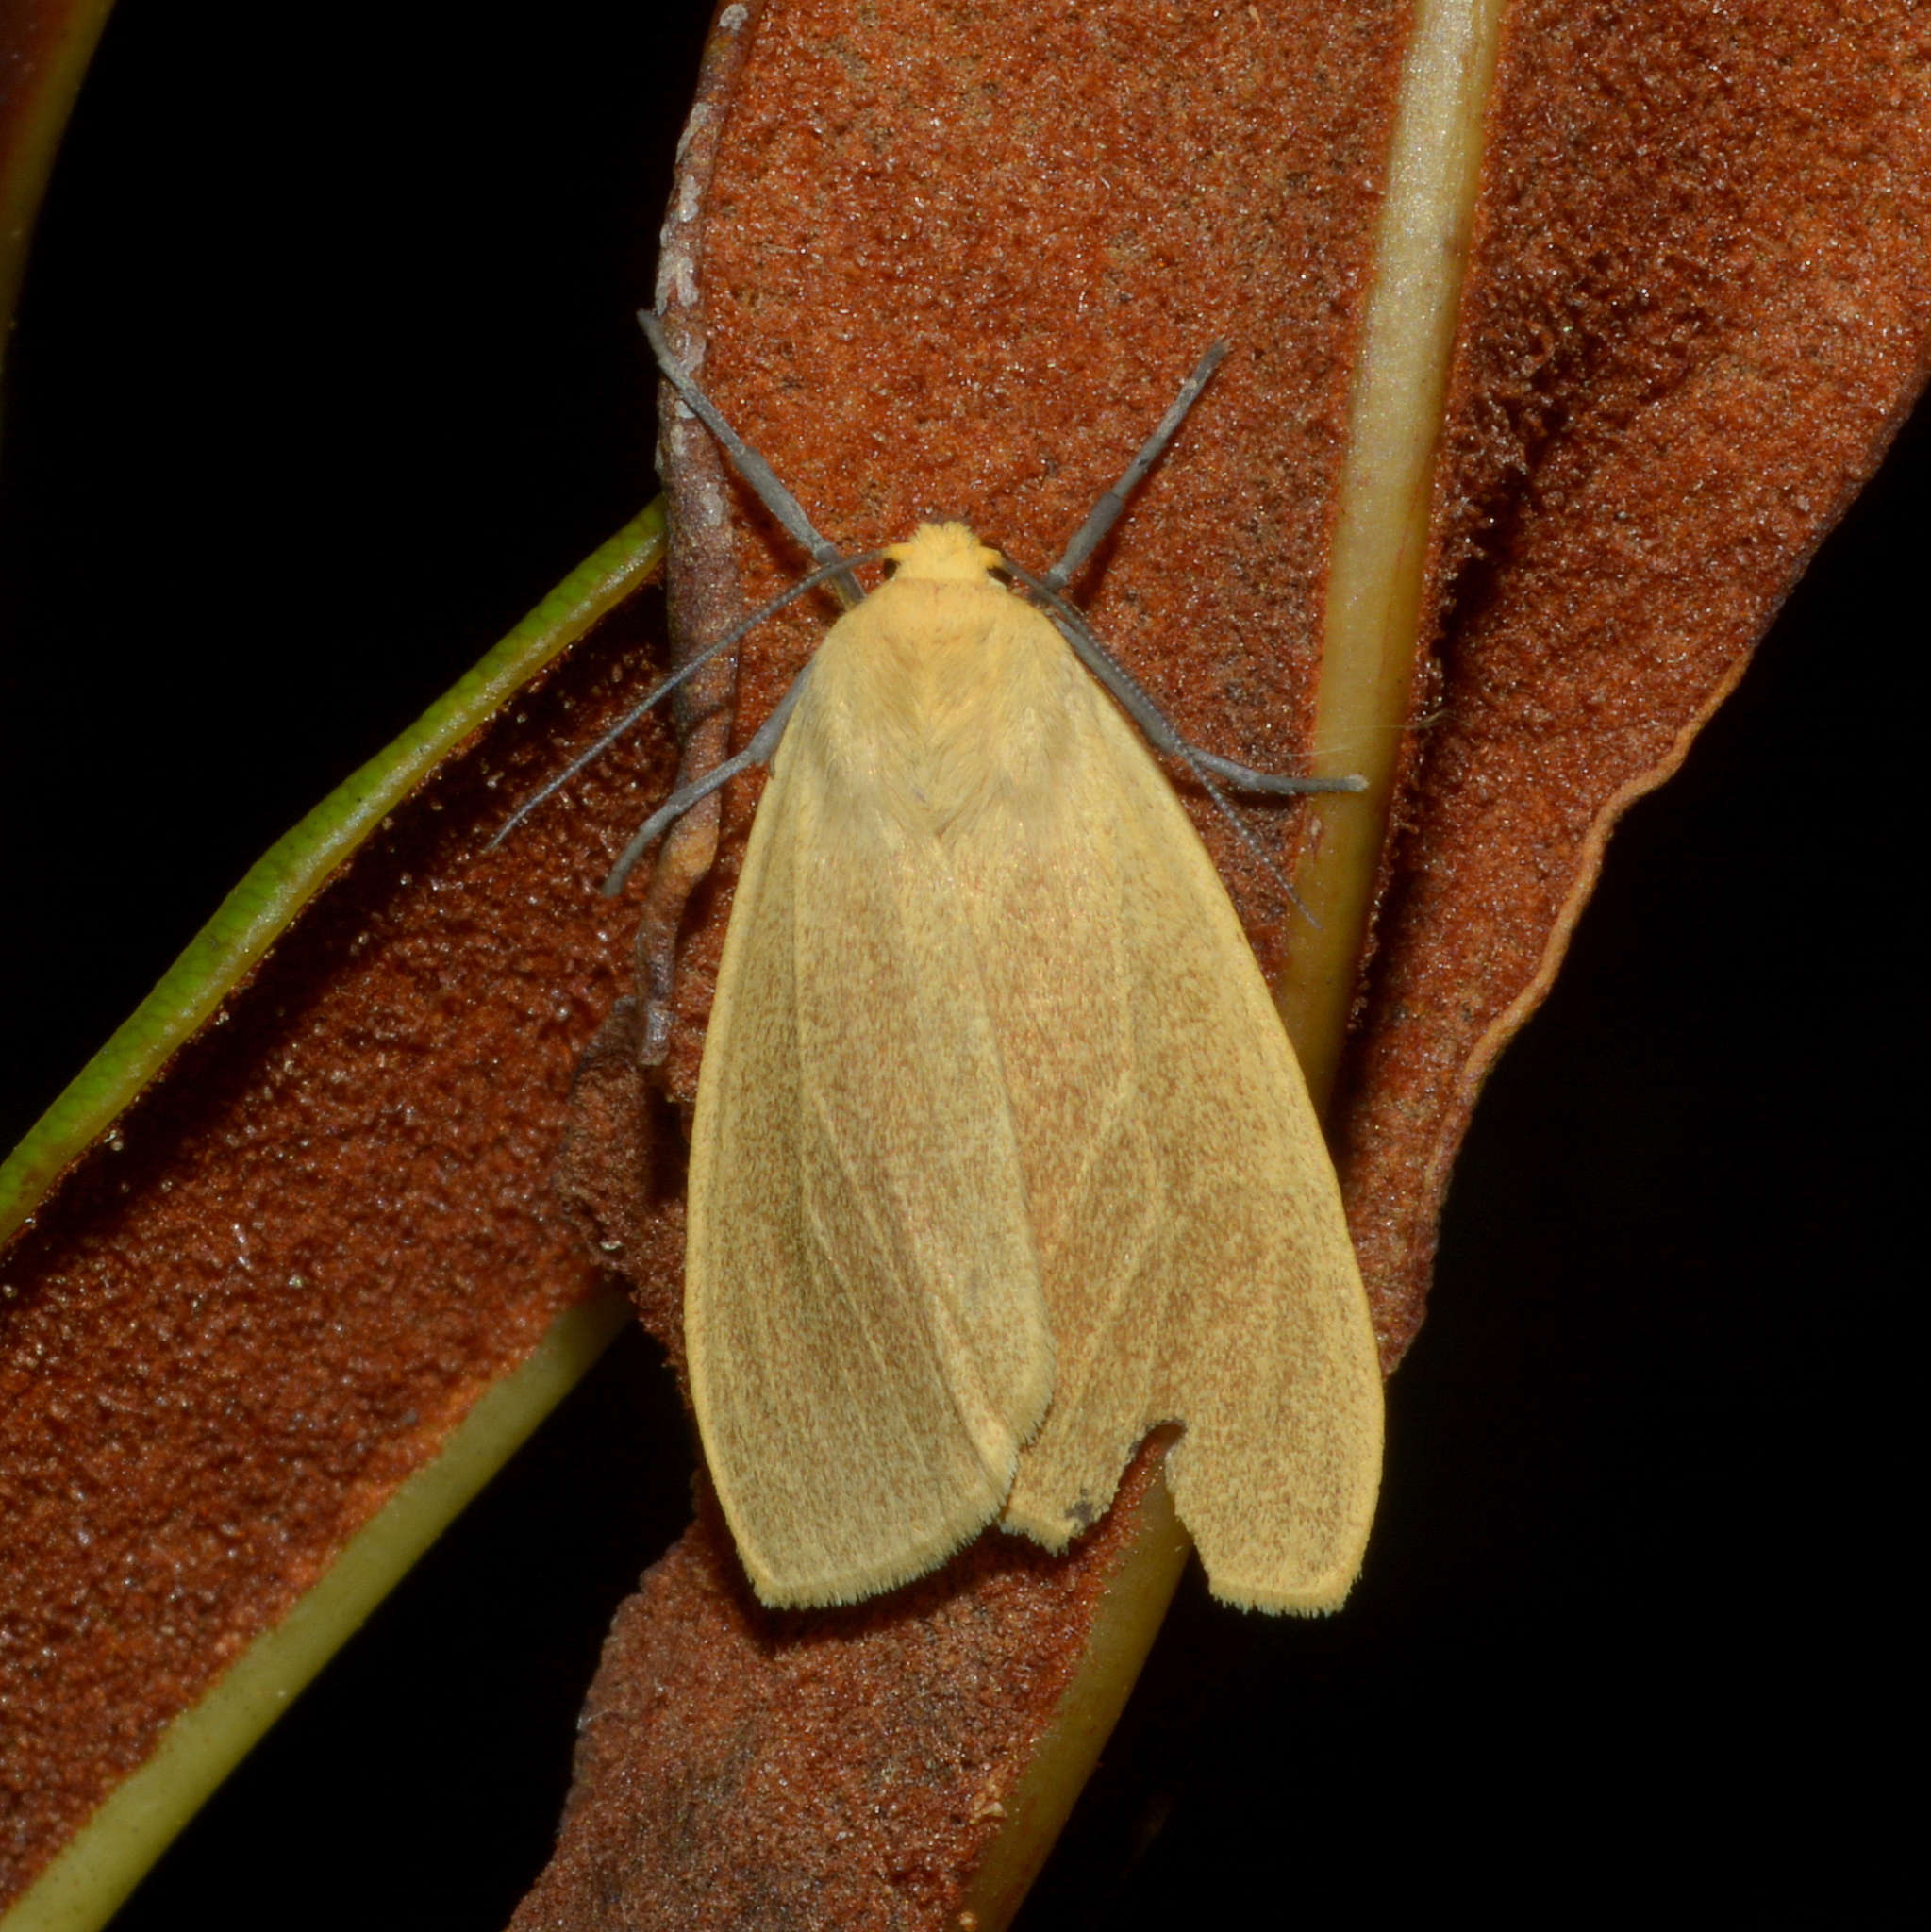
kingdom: Animalia
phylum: Arthropoda
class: Insecta
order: Lepidoptera
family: Erebidae
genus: Pareuchaetes
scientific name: Pareuchaetes aurata
